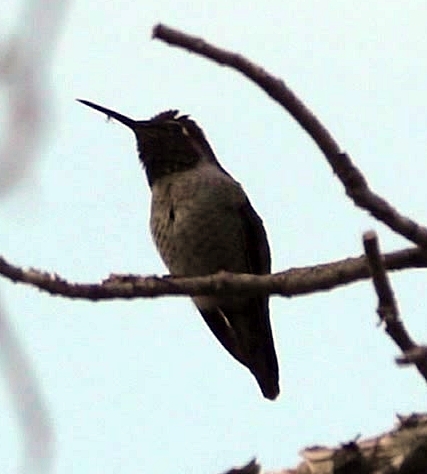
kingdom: Animalia
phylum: Chordata
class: Aves
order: Apodiformes
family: Trochilidae
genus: Calypte
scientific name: Calypte anna
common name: Anna's hummingbird
